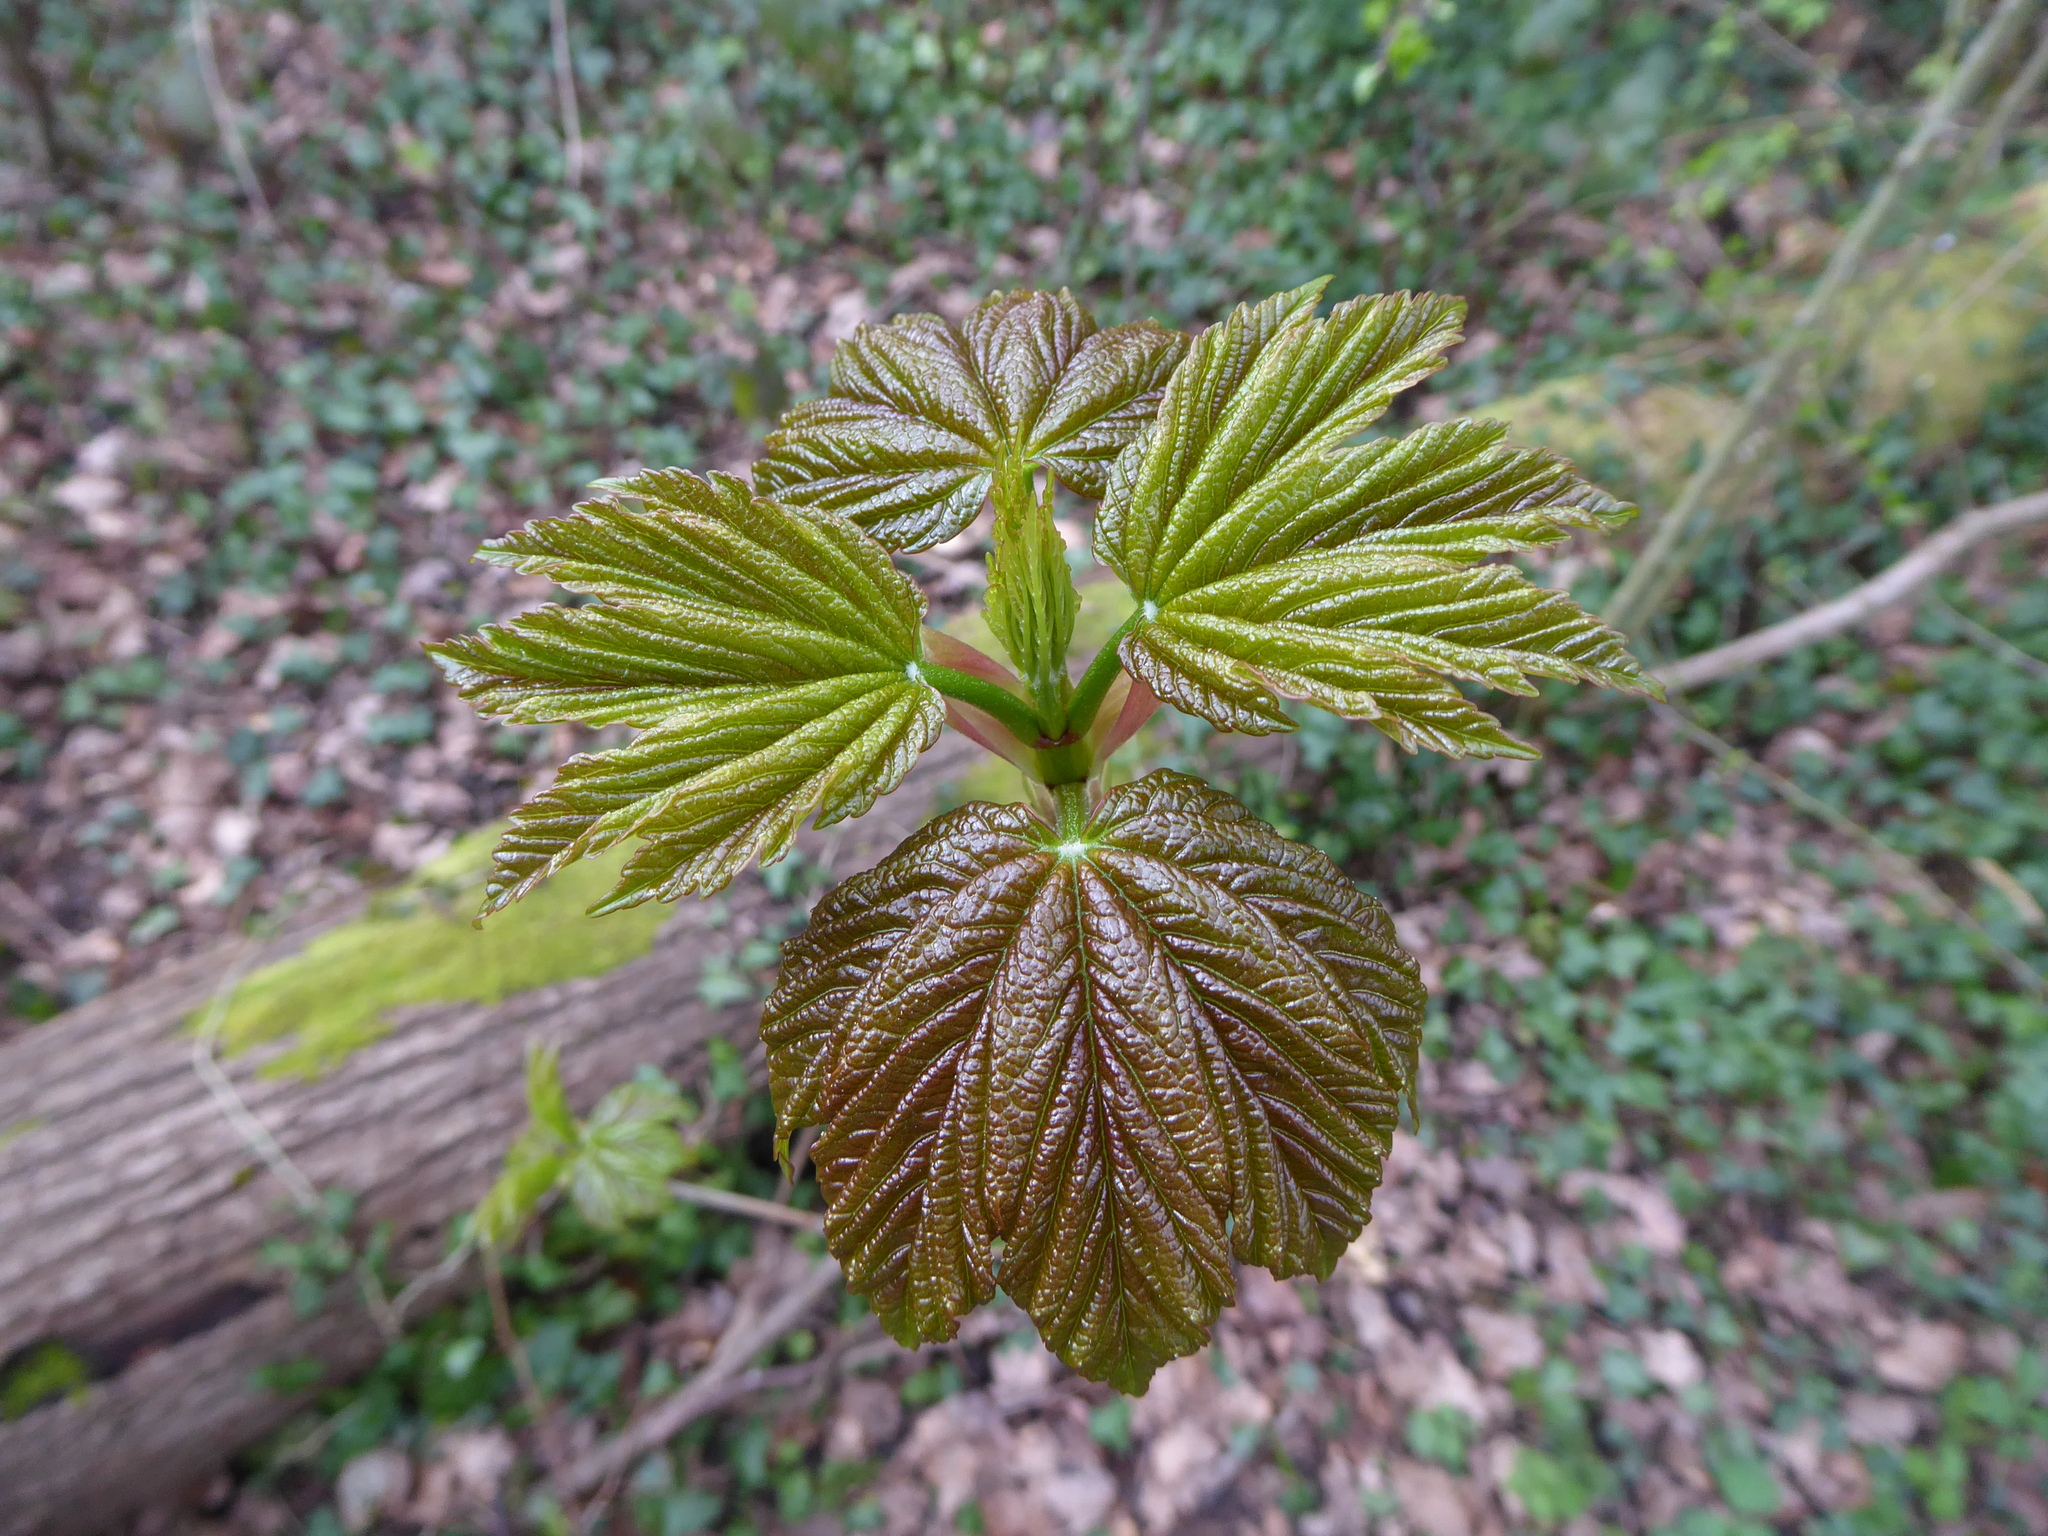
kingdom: Plantae
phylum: Tracheophyta
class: Magnoliopsida
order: Sapindales
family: Sapindaceae
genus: Acer
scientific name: Acer pseudoplatanus
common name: Sycamore
